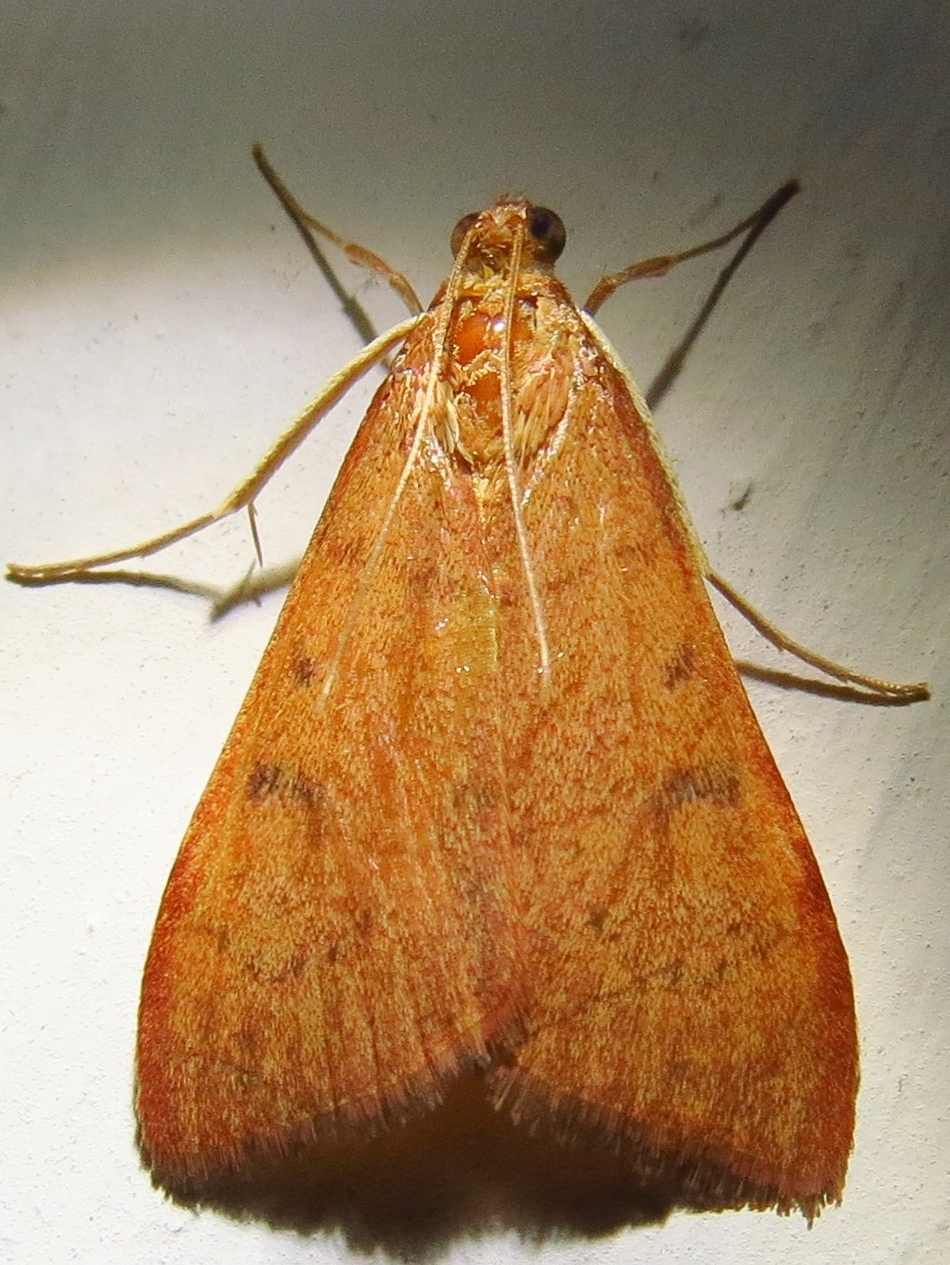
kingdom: Animalia
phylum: Arthropoda
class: Insecta
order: Lepidoptera
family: Crambidae
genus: Uresiphita
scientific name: Uresiphita reversalis
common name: Genista broom moth
